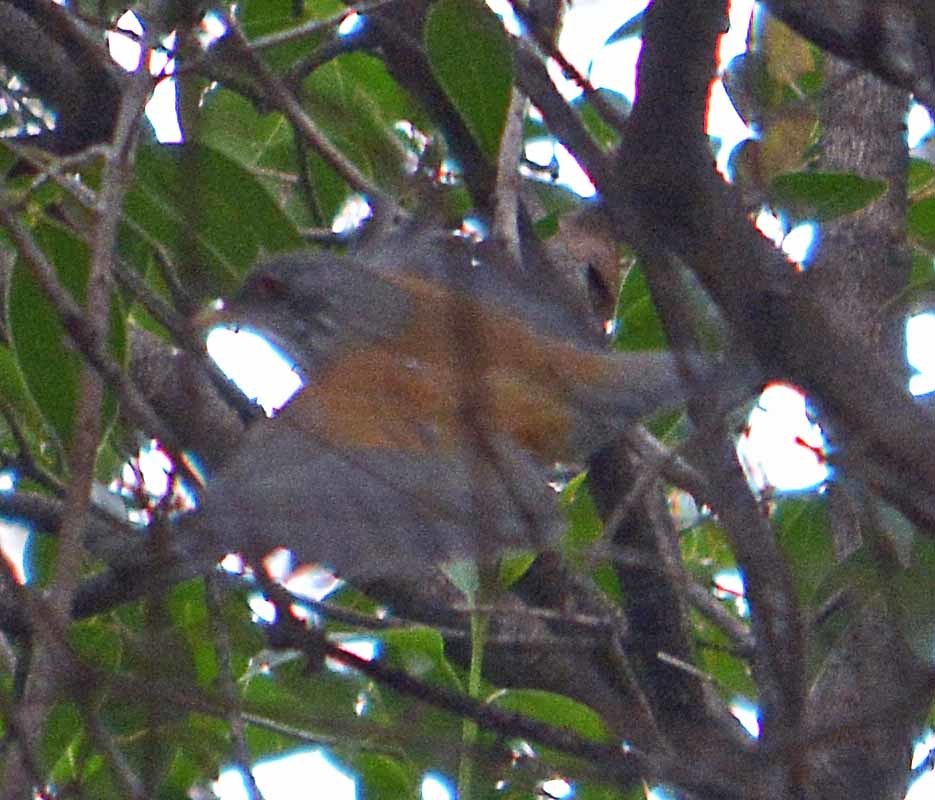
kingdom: Animalia
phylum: Chordata
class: Aves
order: Passeriformes
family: Turdidae
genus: Turdus
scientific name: Turdus rufopalliatus
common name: Rufous-backed robin
